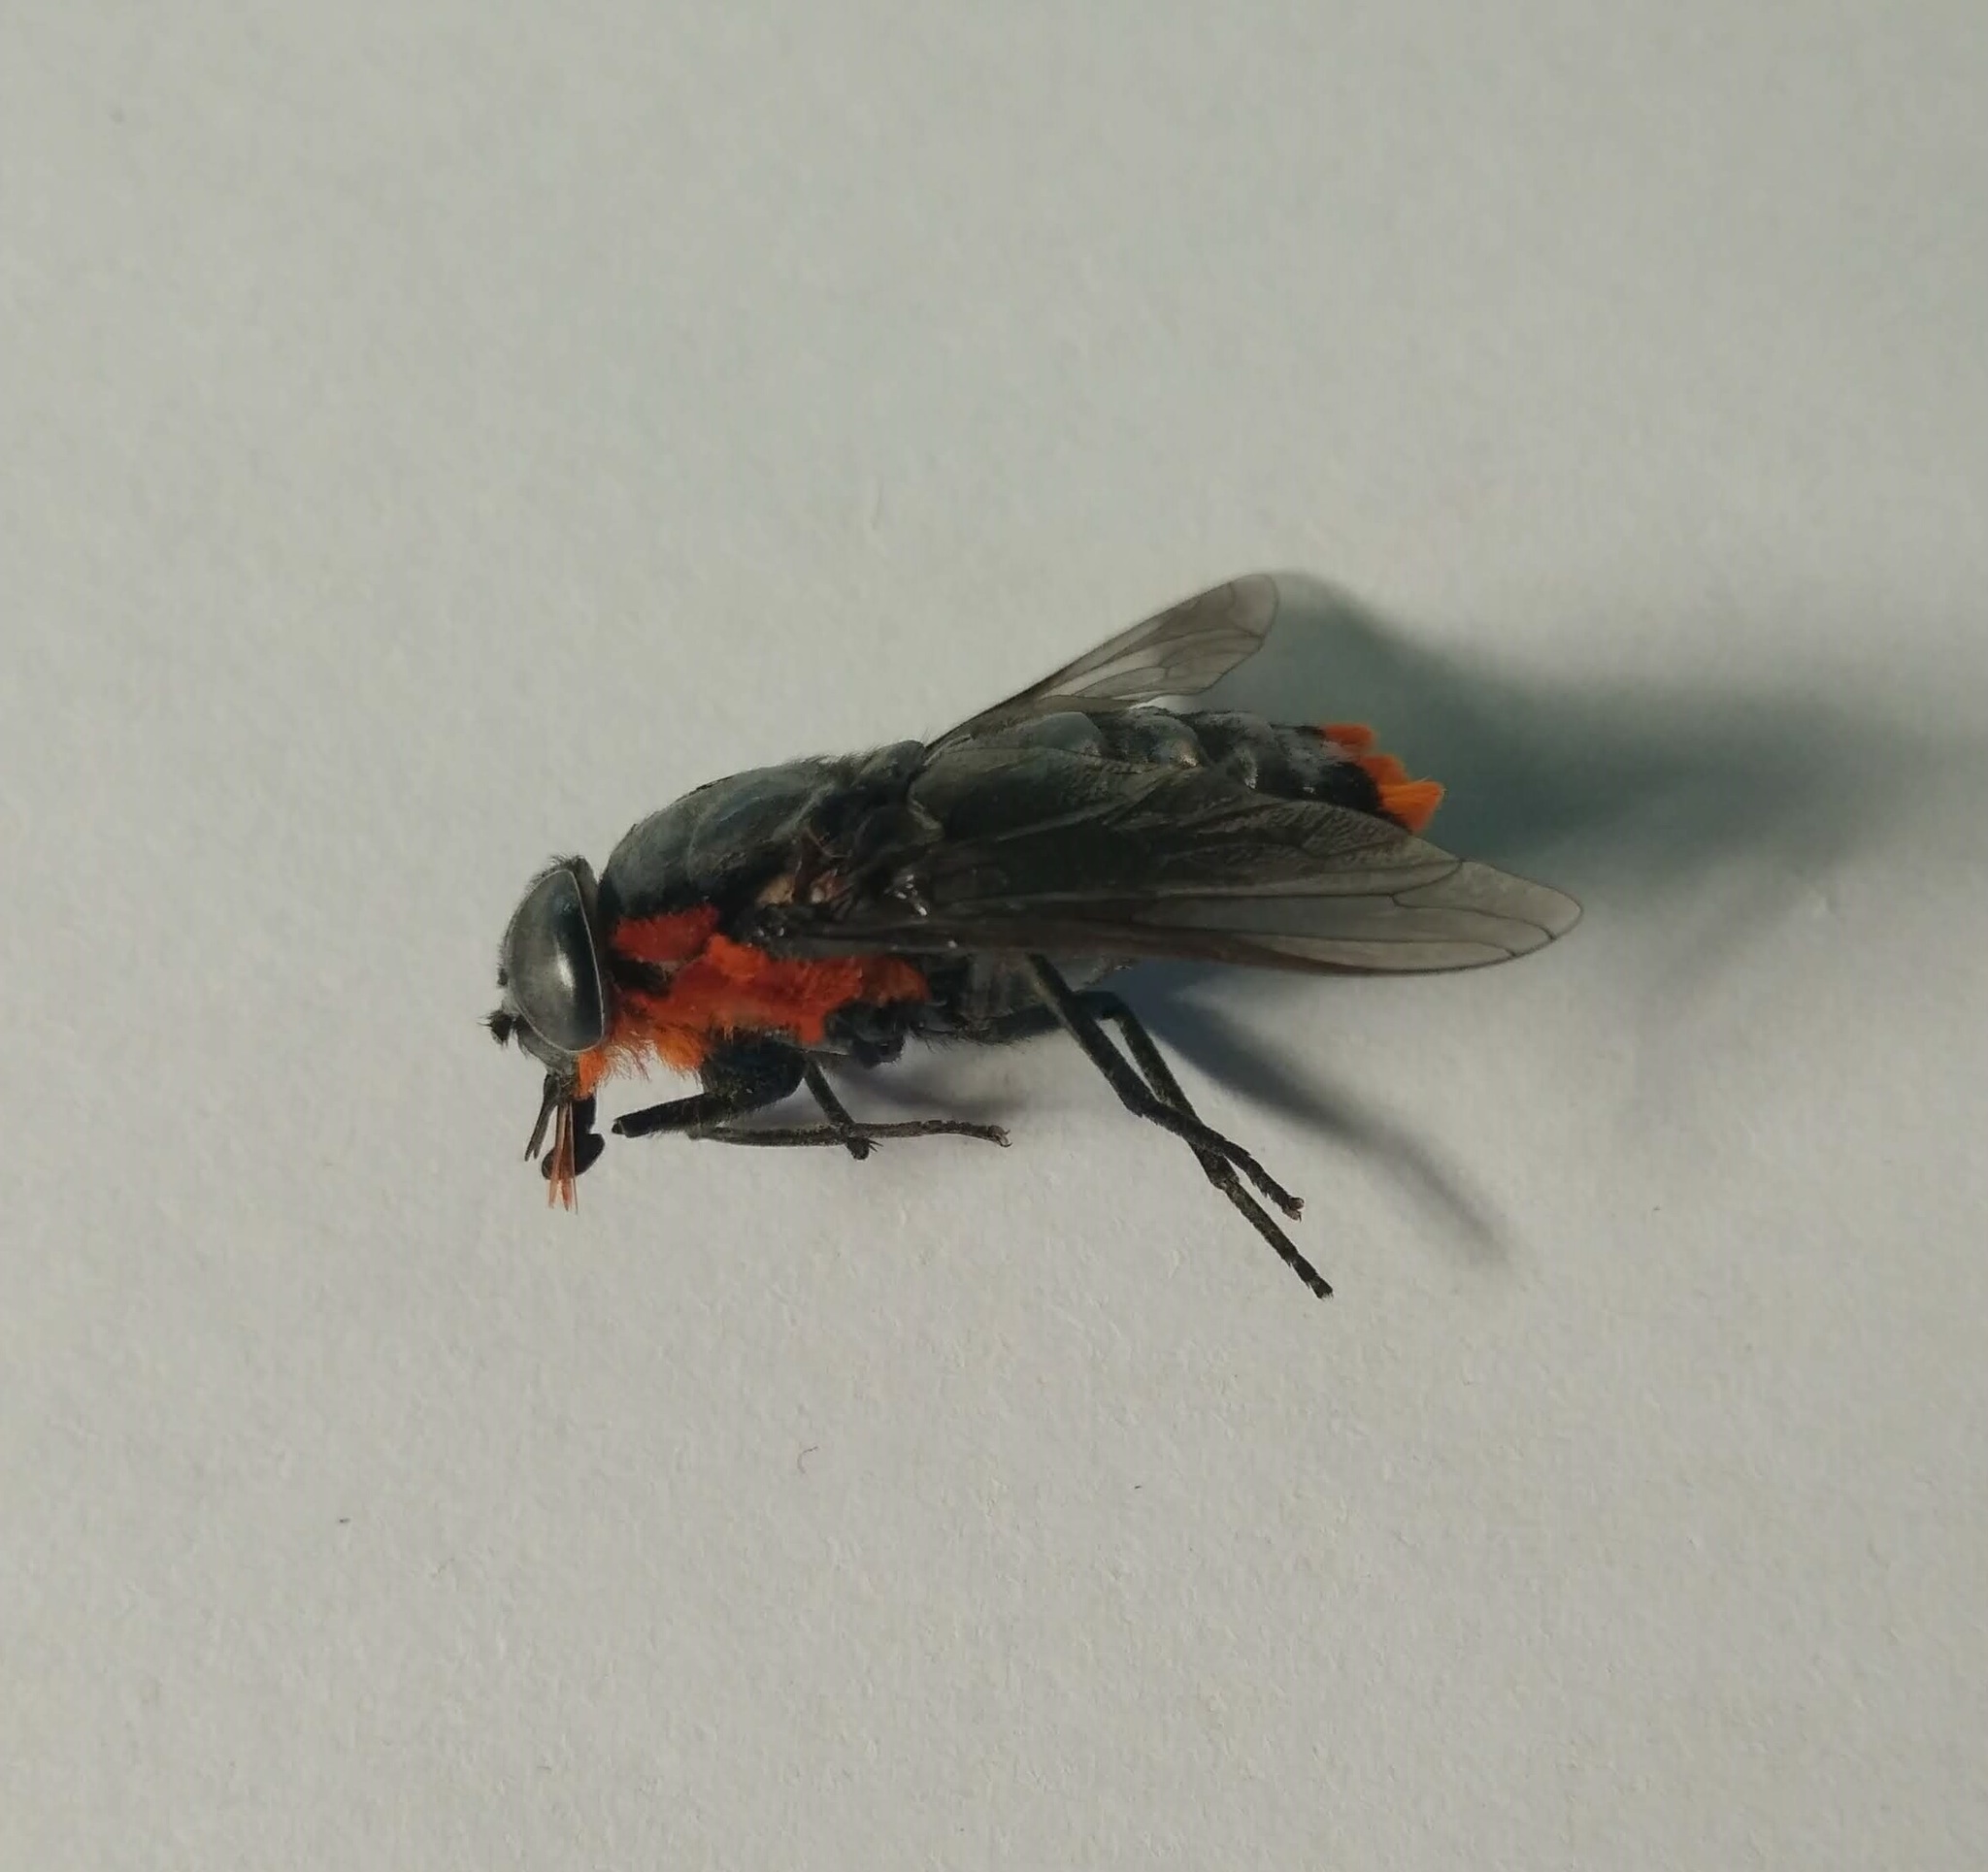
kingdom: Animalia
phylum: Arthropoda
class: Insecta
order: Diptera
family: Tabanidae
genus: Osca
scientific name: Osca lata
